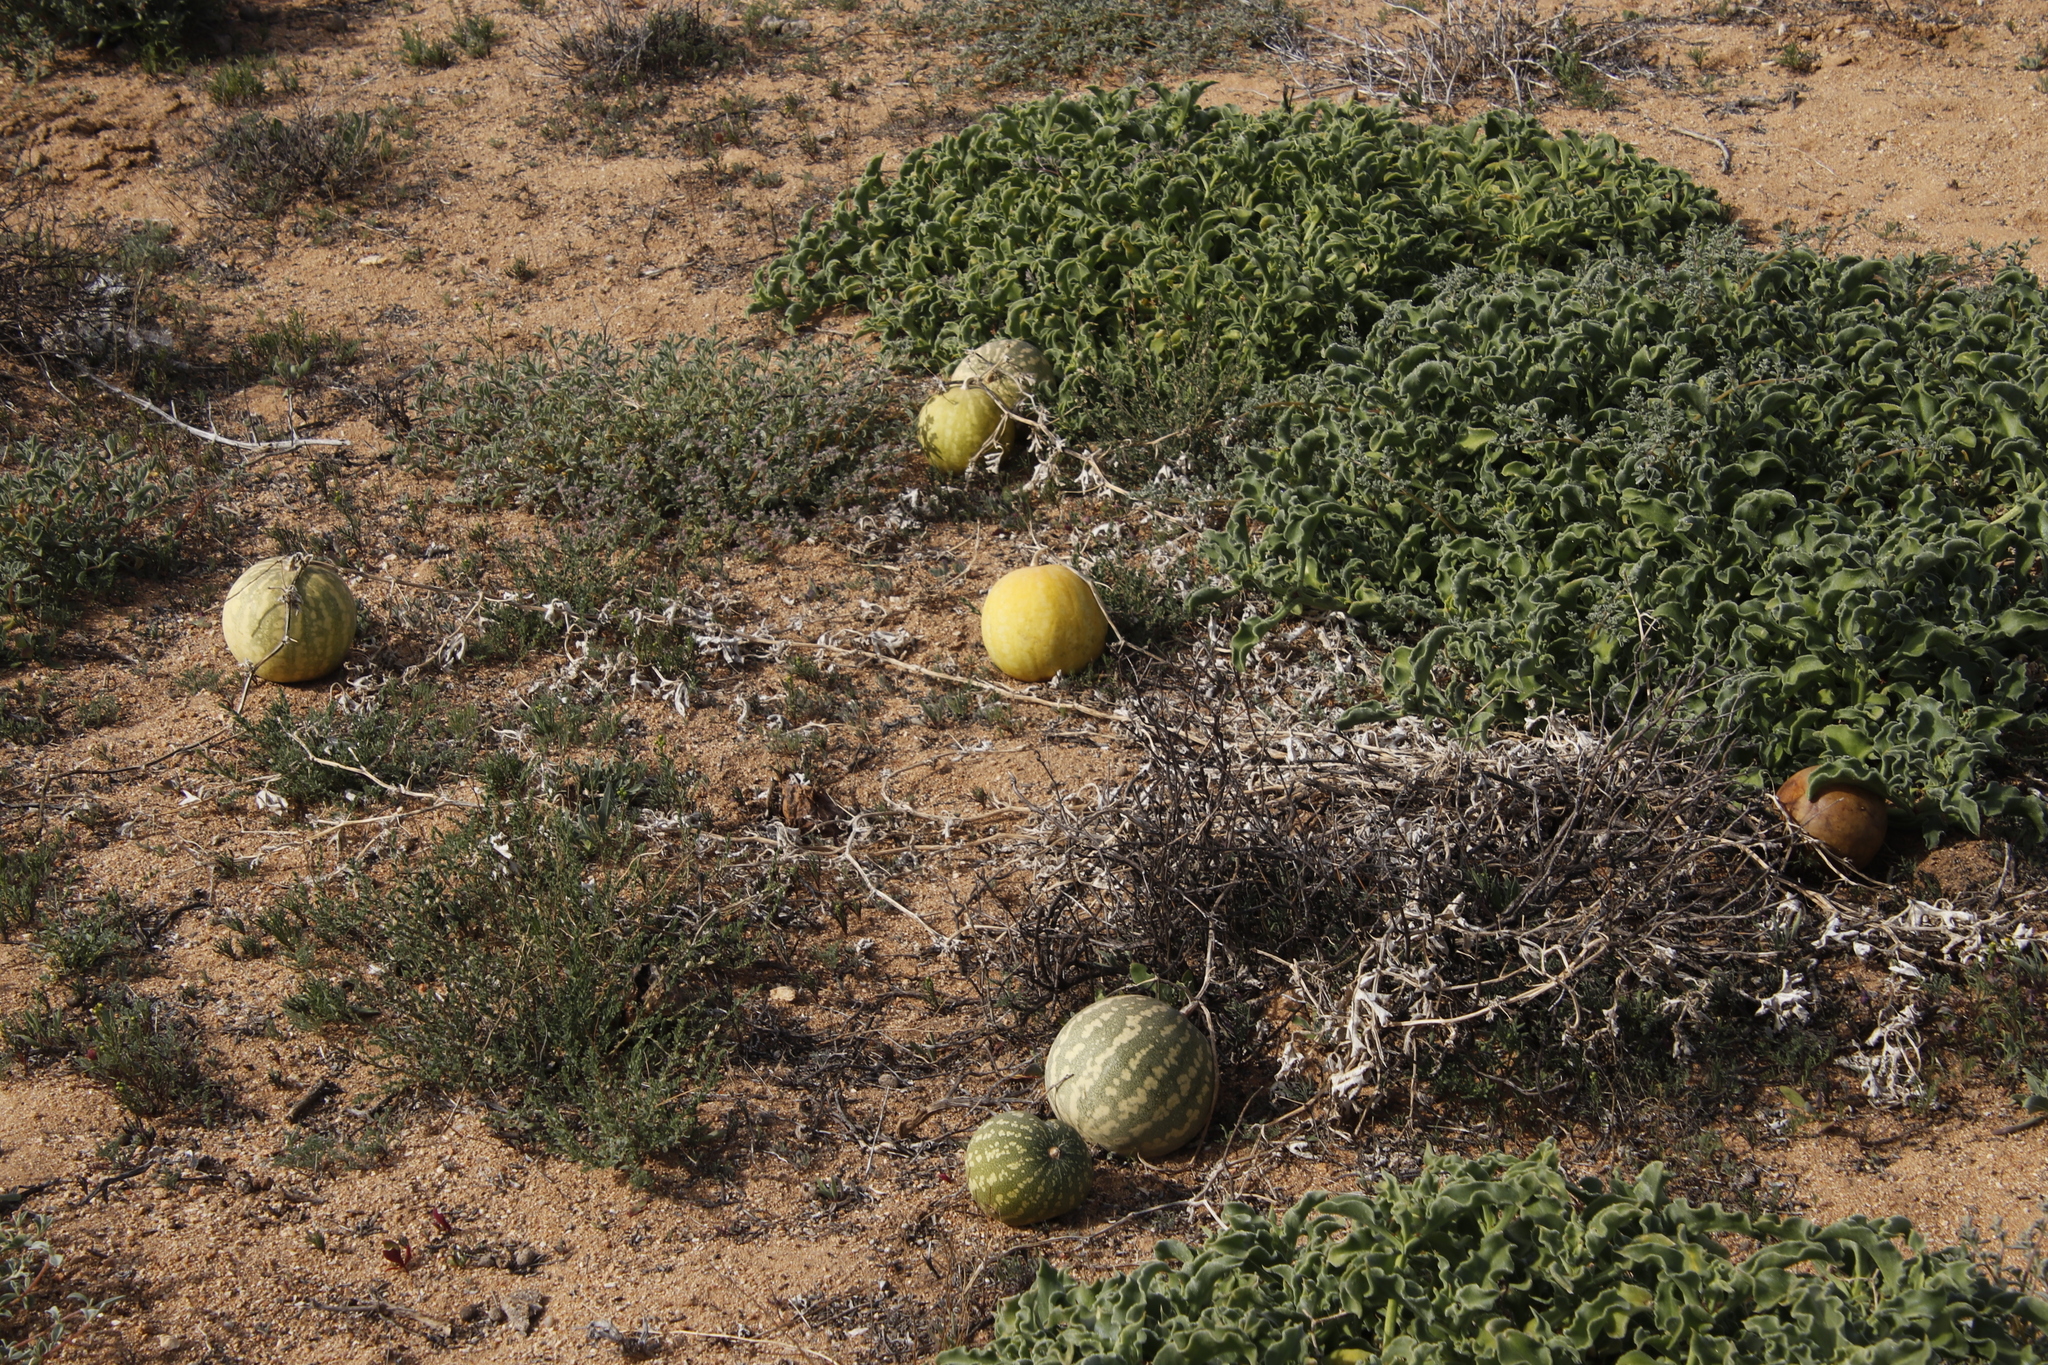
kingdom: Plantae
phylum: Tracheophyta
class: Magnoliopsida
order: Cucurbitales
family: Cucurbitaceae
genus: Citrullus
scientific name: Citrullus amarus
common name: Fodder-melon
